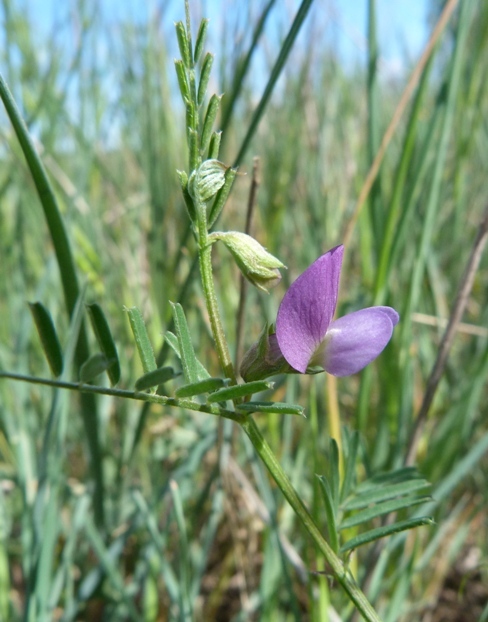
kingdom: Plantae
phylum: Tracheophyta
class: Magnoliopsida
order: Fabales
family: Fabaceae
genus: Vicia
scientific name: Vicia peregrina
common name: Broad-pod vetch
